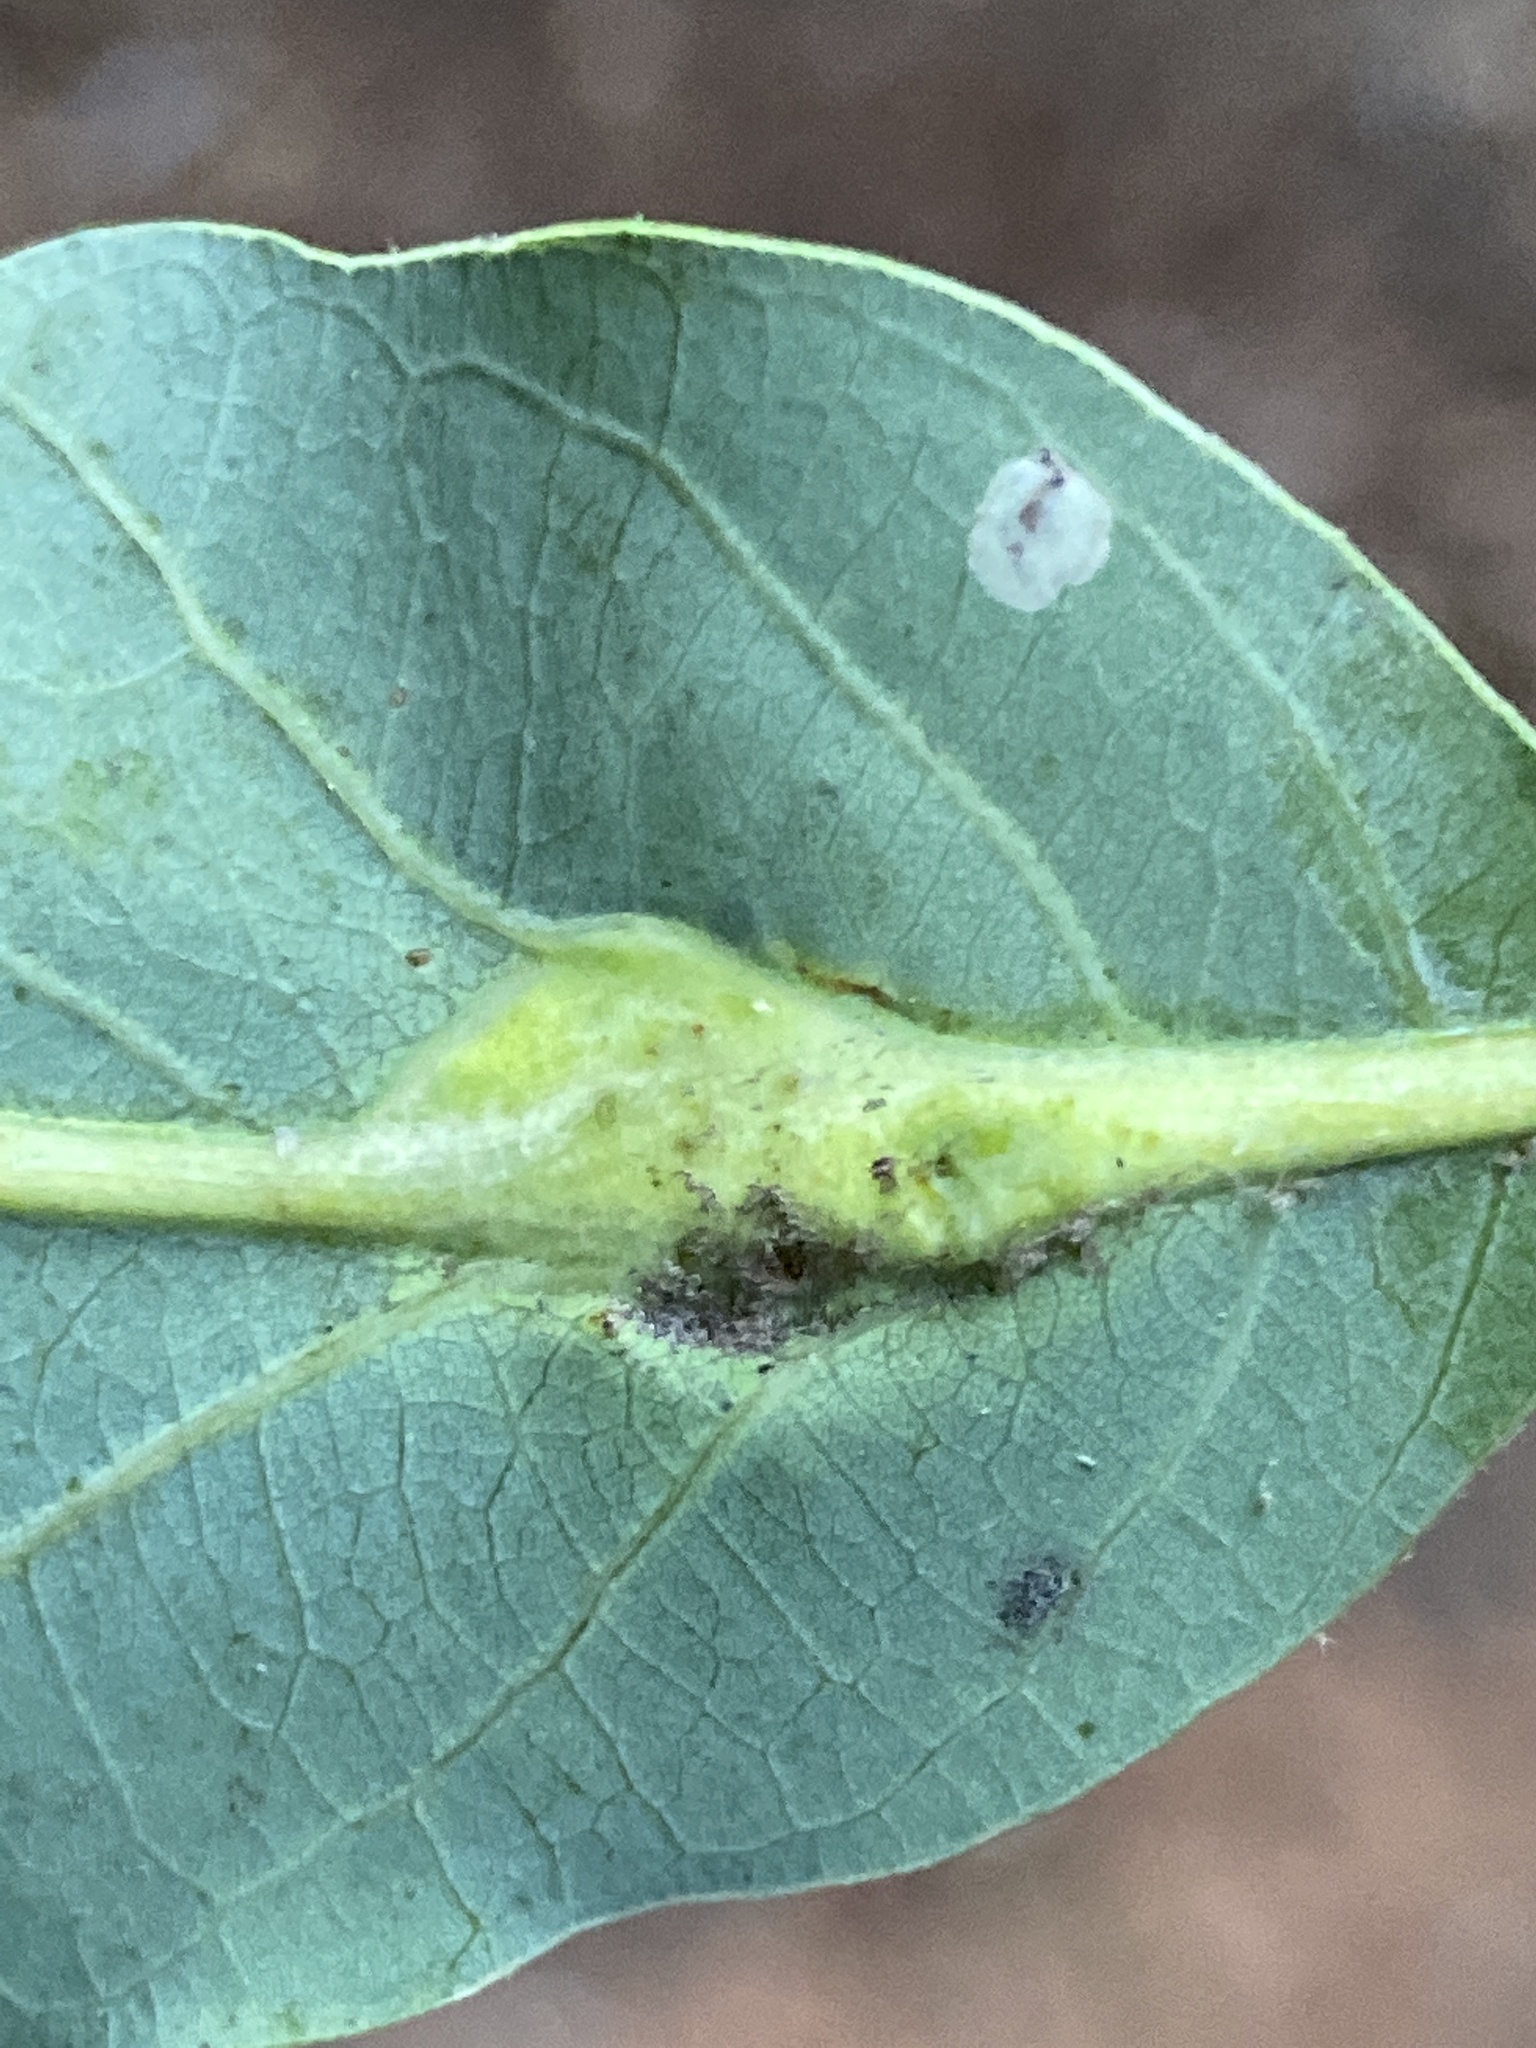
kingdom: Animalia
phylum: Arthropoda
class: Insecta
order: Hymenoptera
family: Cynipidae
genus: Andricus
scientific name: Andricus
